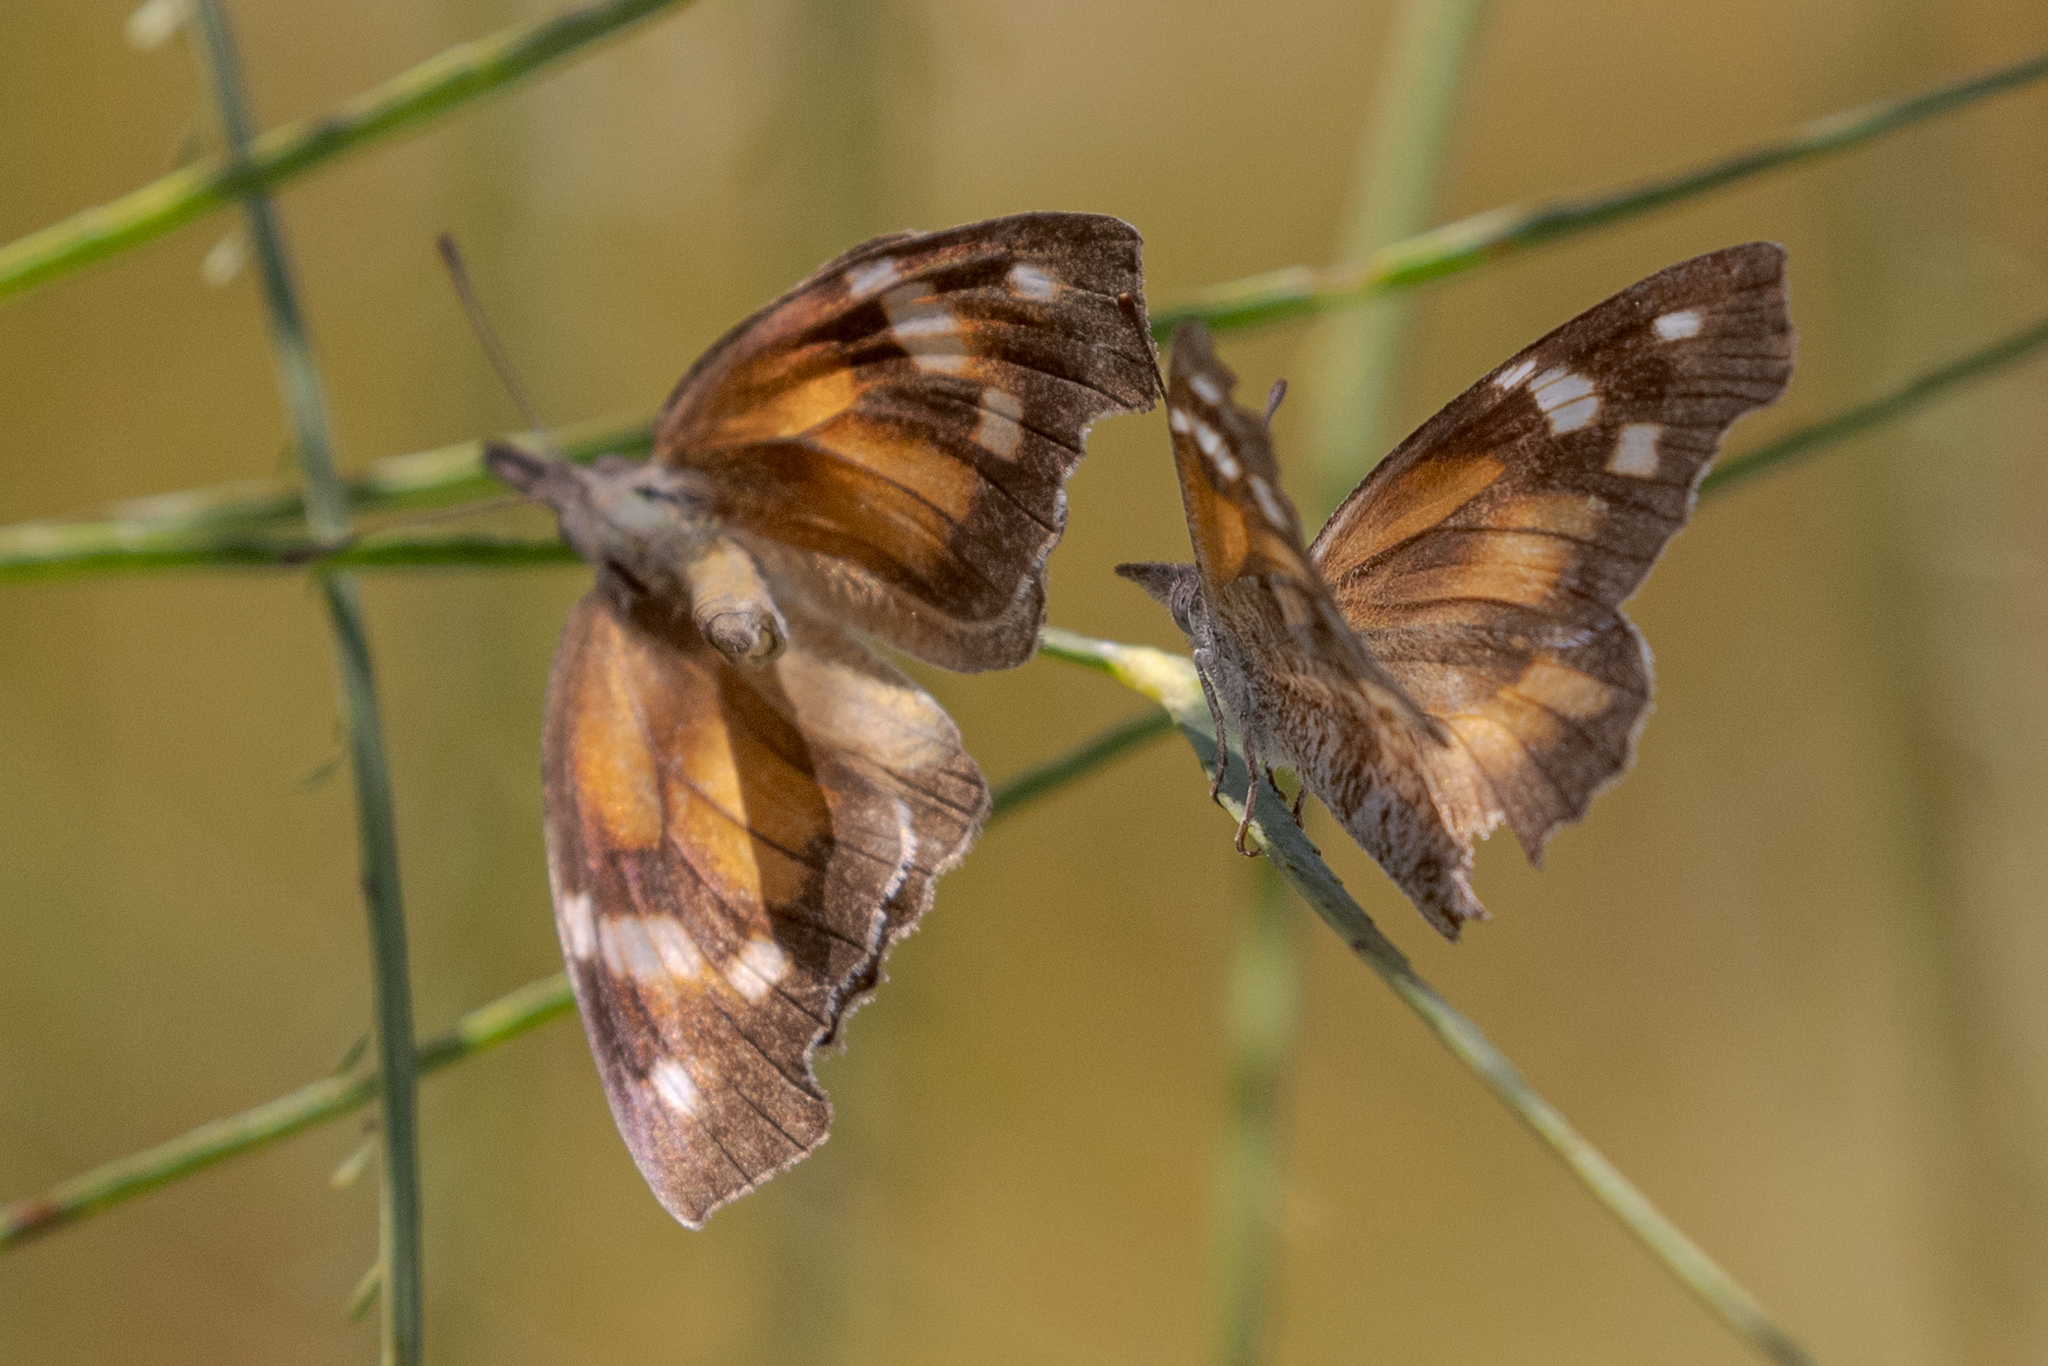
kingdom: Animalia
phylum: Arthropoda
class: Insecta
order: Lepidoptera
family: Nymphalidae
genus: Libytheana
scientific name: Libytheana carinenta
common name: American snout
